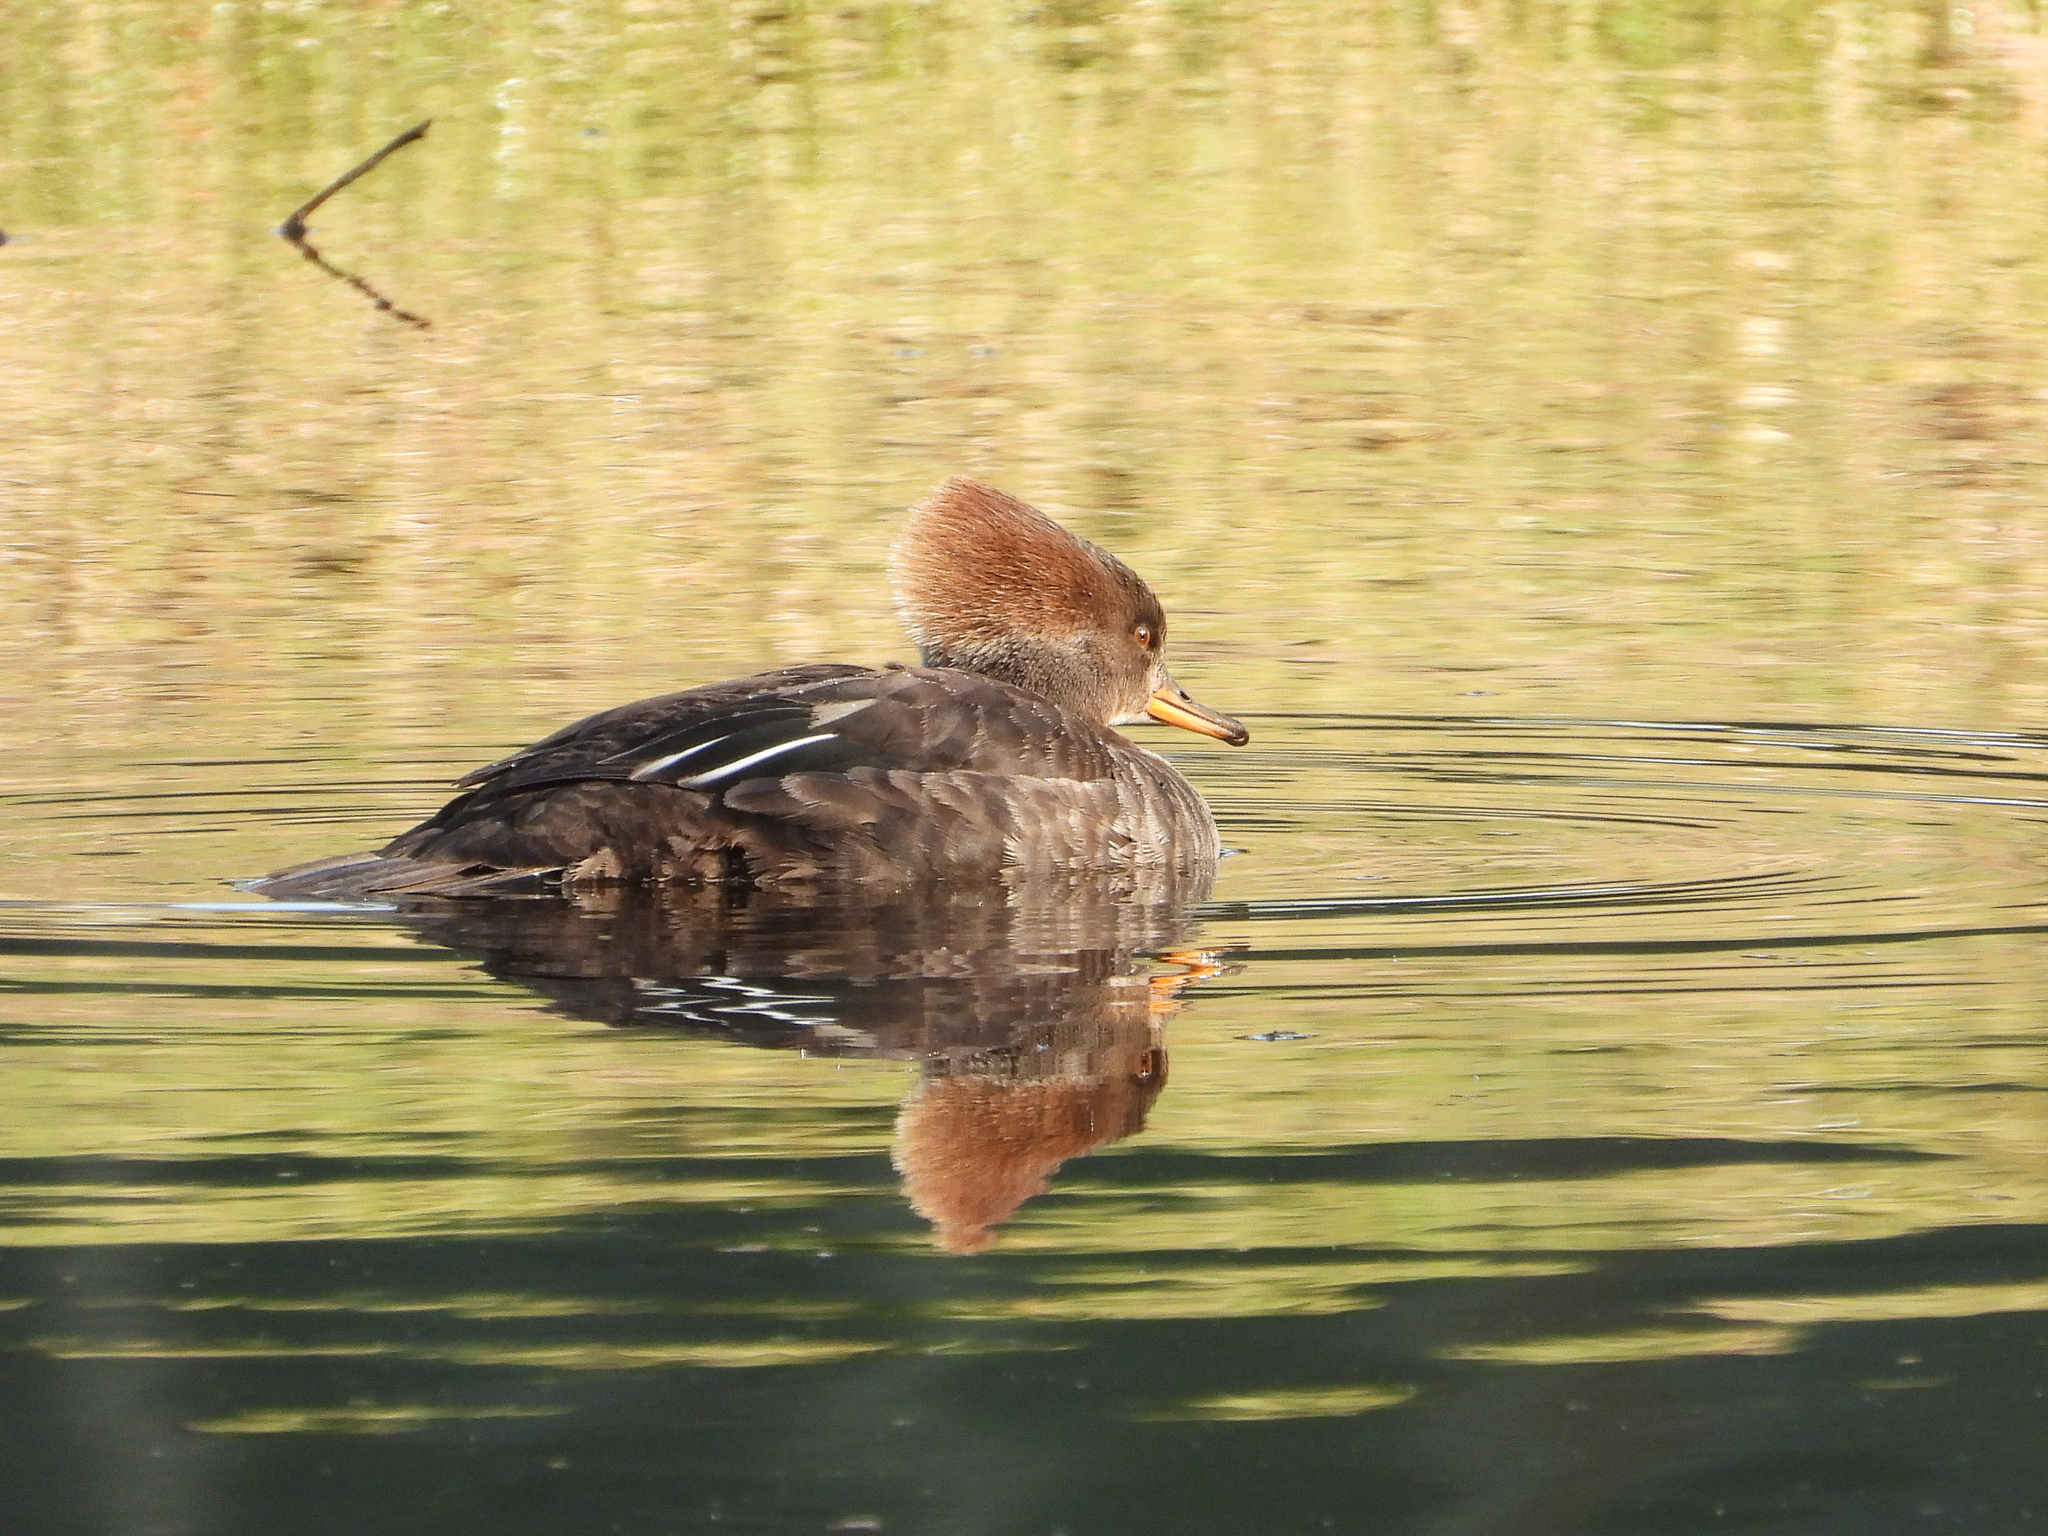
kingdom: Animalia
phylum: Chordata
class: Aves
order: Anseriformes
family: Anatidae
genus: Lophodytes
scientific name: Lophodytes cucullatus
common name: Hooded merganser
